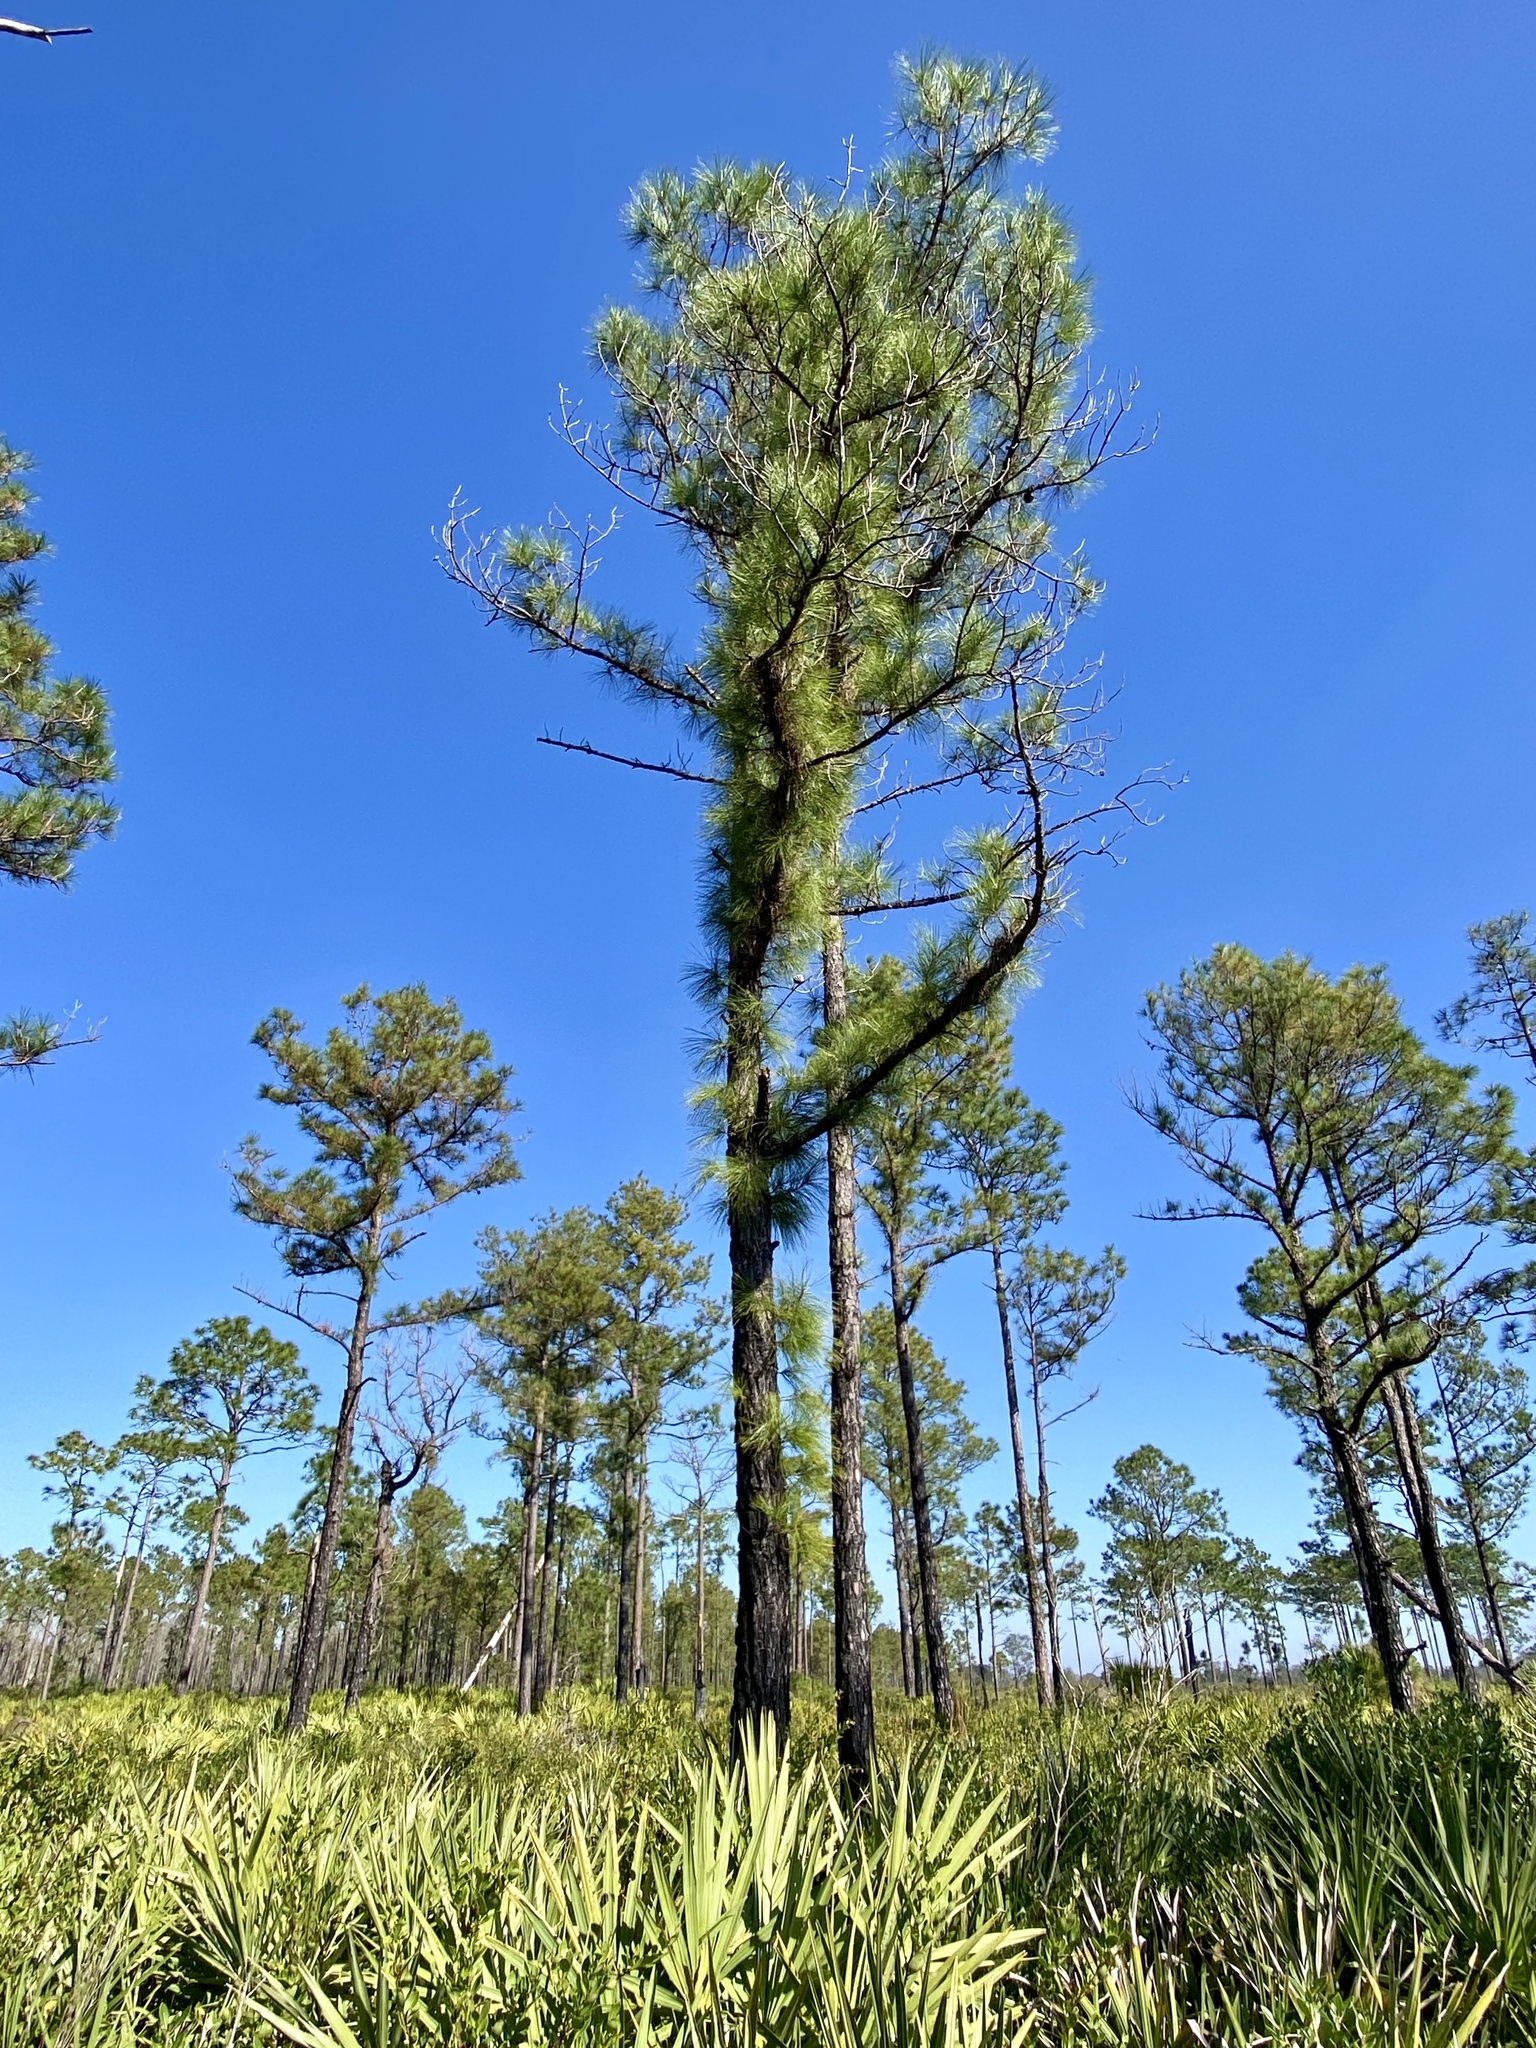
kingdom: Plantae
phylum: Tracheophyta
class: Pinopsida
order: Pinales
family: Pinaceae
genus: Pinus
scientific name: Pinus serotina
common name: Marsh pine
